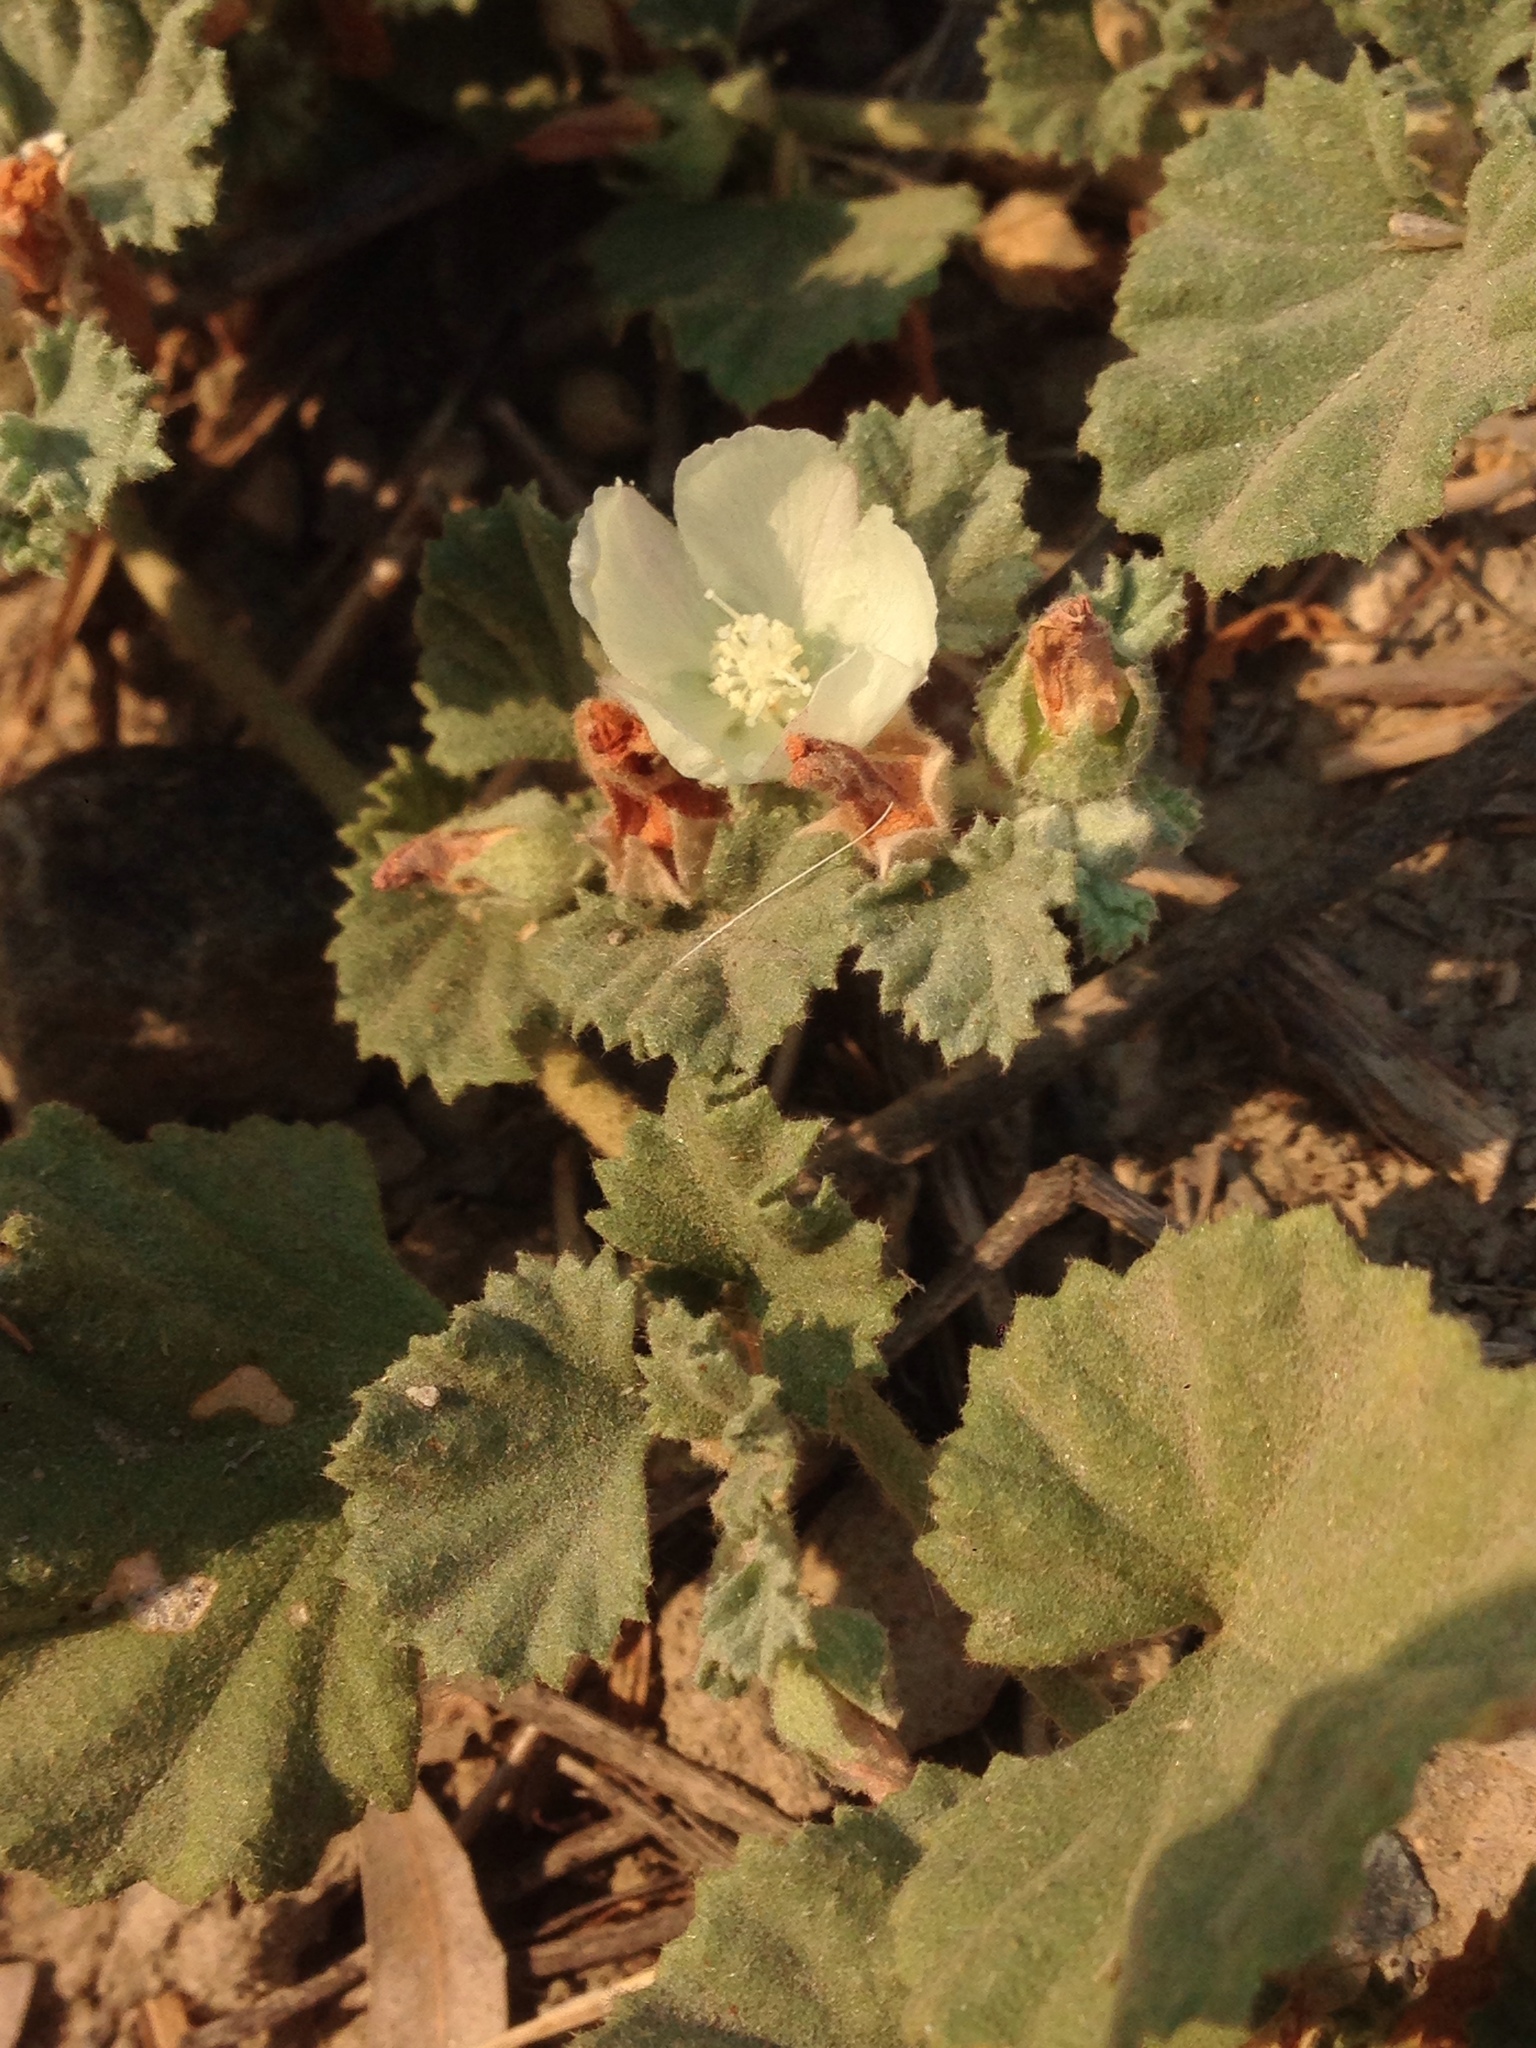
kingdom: Plantae
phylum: Tracheophyta
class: Magnoliopsida
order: Malvales
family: Malvaceae
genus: Malvella
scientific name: Malvella leprosa
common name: Alkali-mallow
